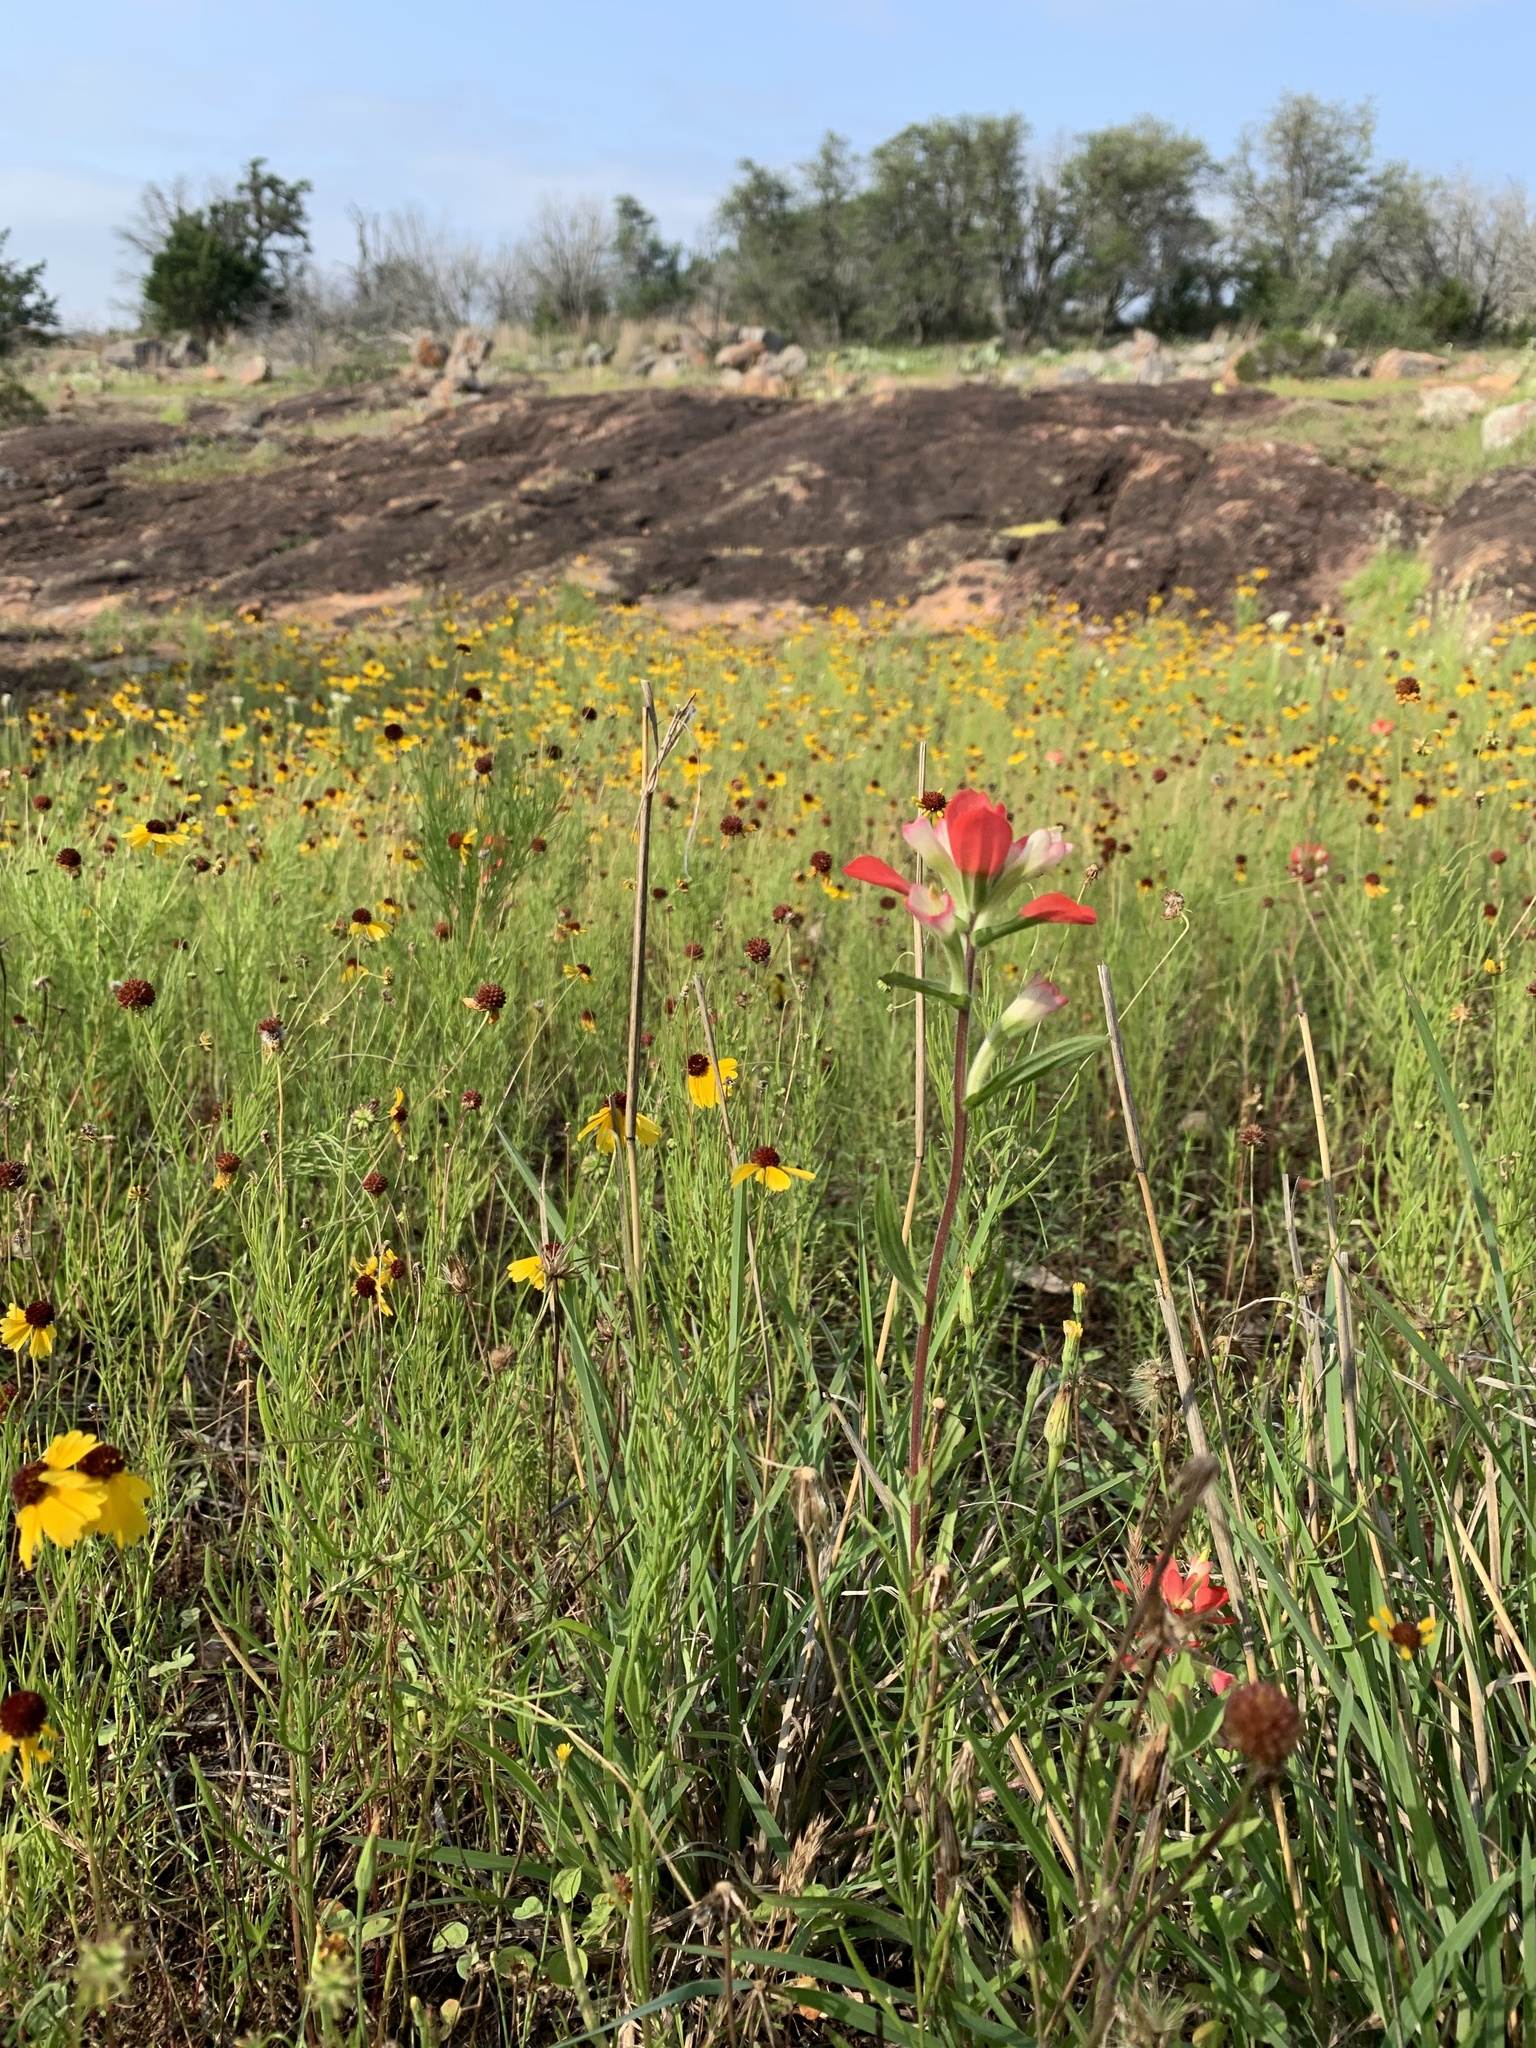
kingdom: Plantae
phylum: Tracheophyta
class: Magnoliopsida
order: Lamiales
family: Orobanchaceae
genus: Castilleja
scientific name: Castilleja indivisa
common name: Texas paintbrush
